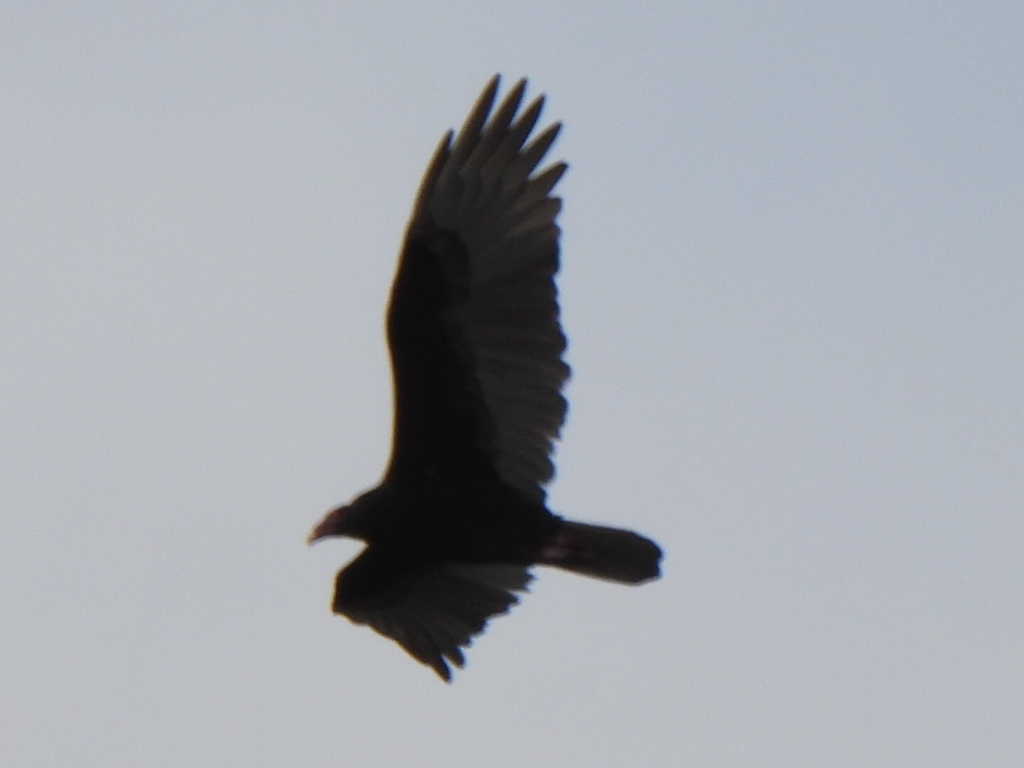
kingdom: Animalia
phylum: Chordata
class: Aves
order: Accipitriformes
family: Cathartidae
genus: Cathartes
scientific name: Cathartes aura
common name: Turkey vulture
